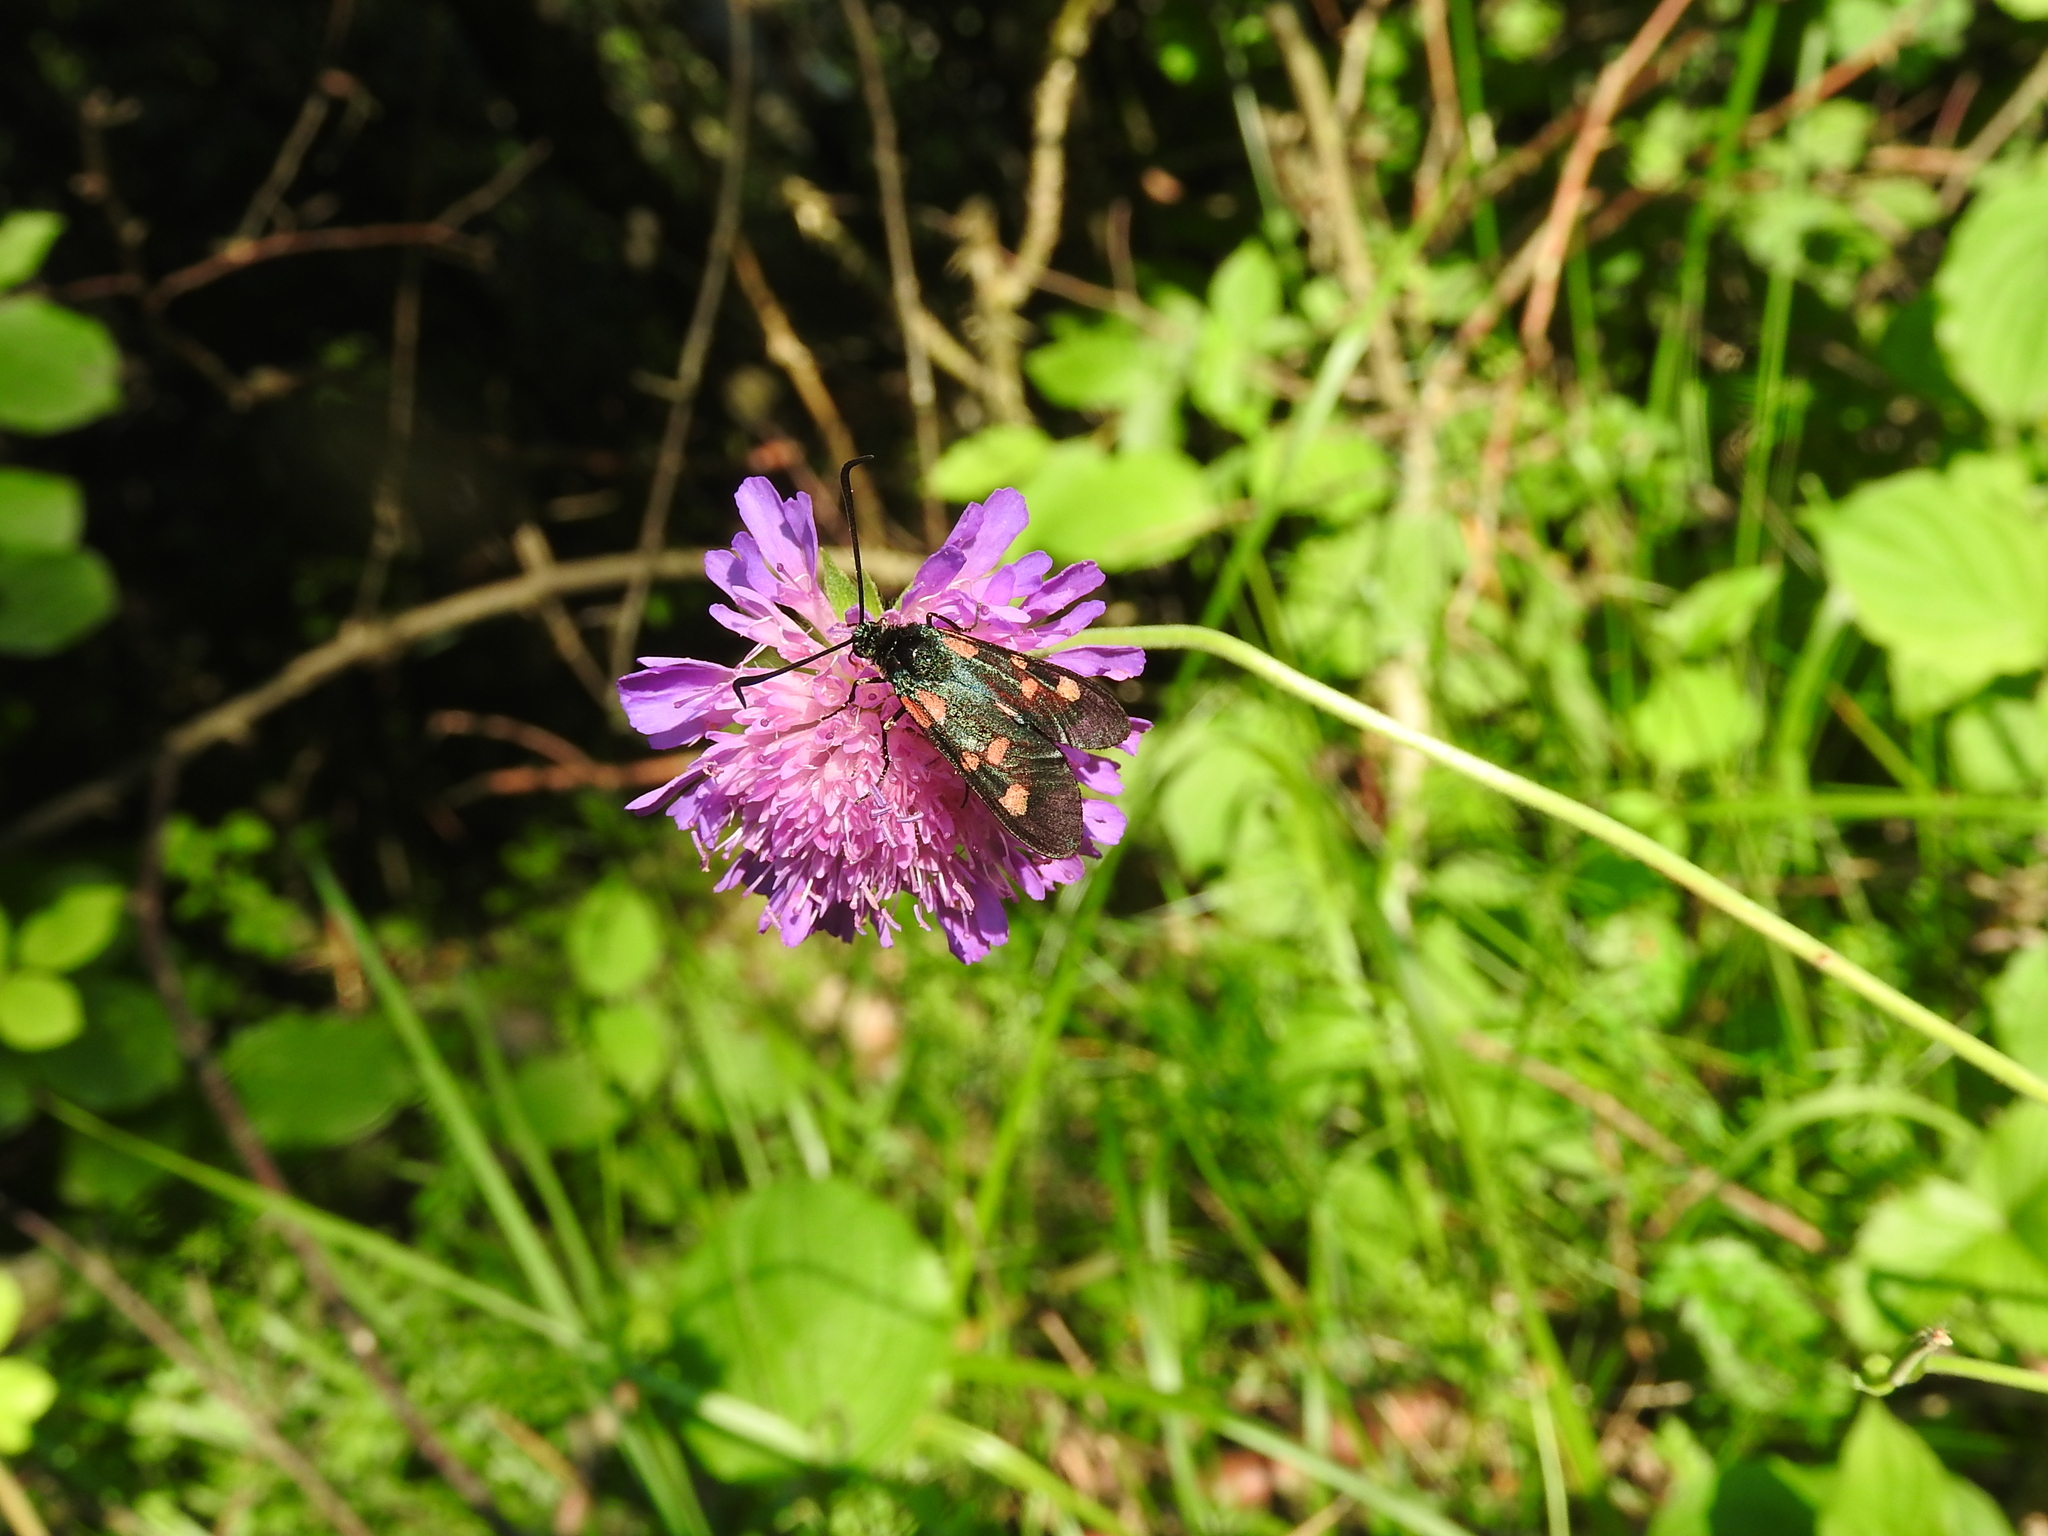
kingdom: Animalia
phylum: Arthropoda
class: Insecta
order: Lepidoptera
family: Zygaenidae
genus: Zygaena
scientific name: Zygaena lonicerae
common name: Narrow-bordered five-spot burnet
